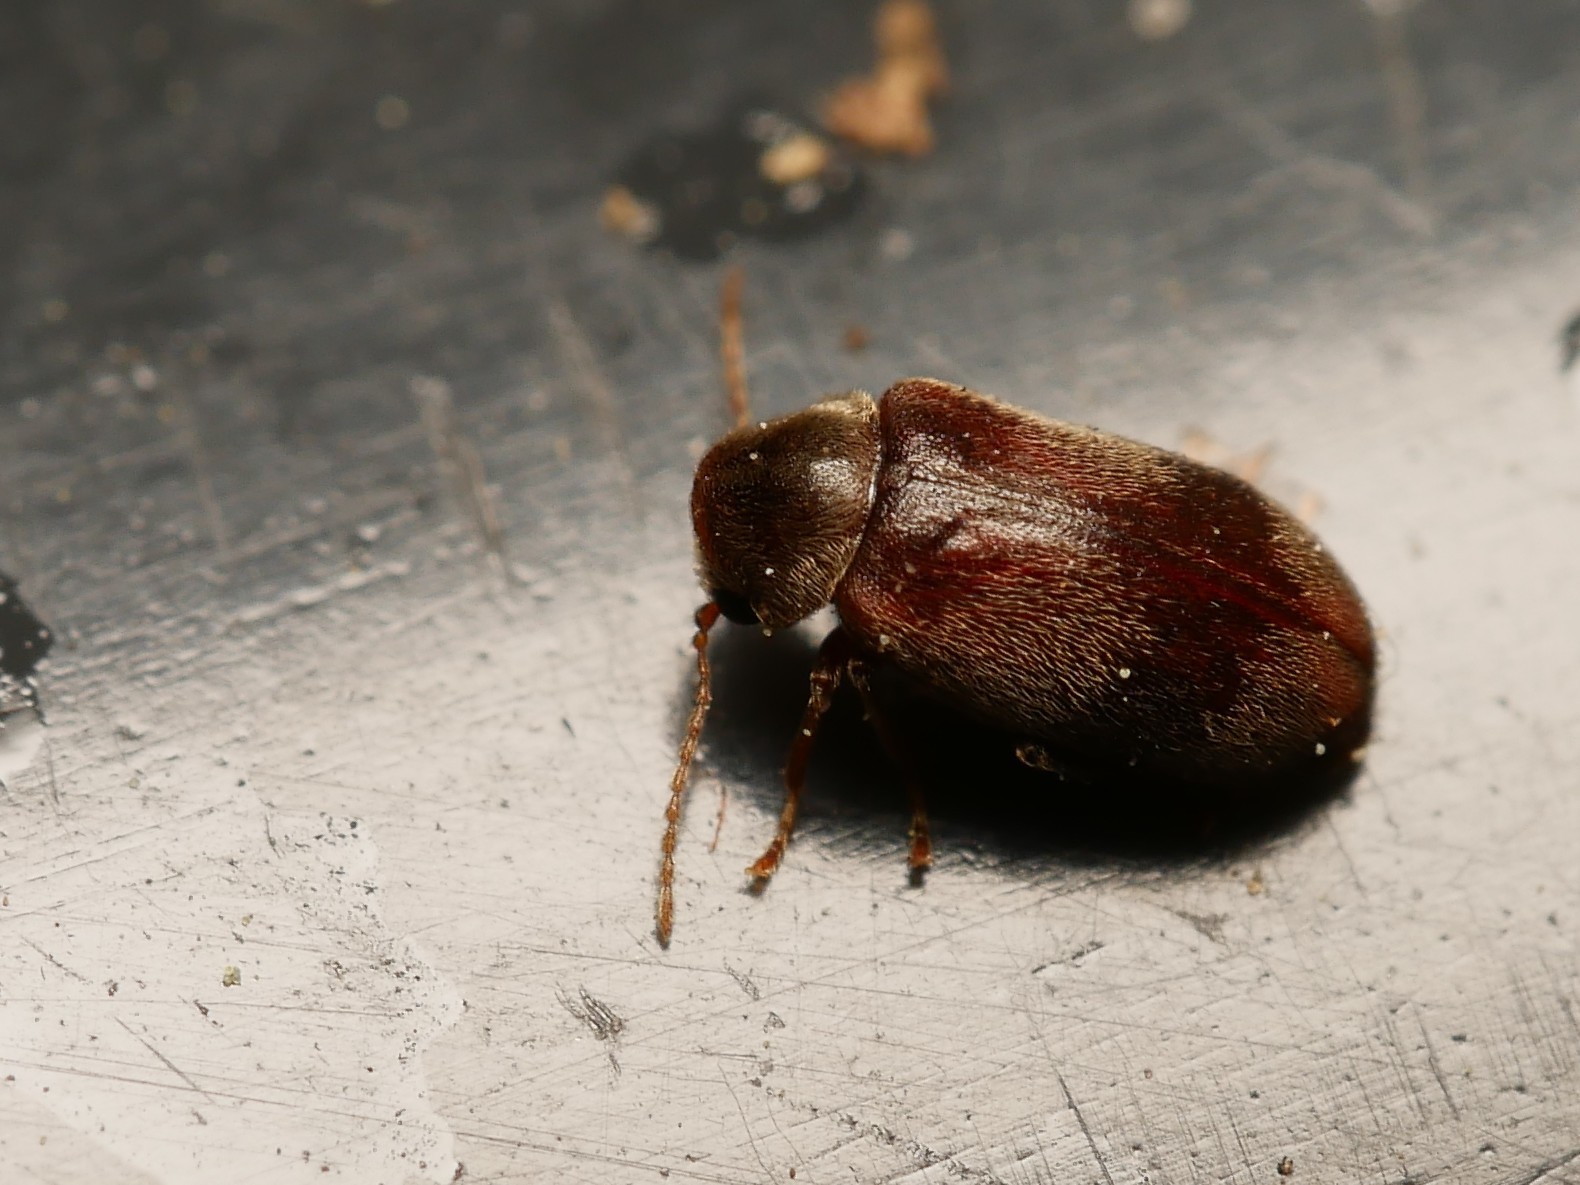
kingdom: Animalia
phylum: Arthropoda
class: Insecta
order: Coleoptera
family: Ptinidae
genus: Ochina
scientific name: Ochina ptinoides
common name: Ivy boring beetle
